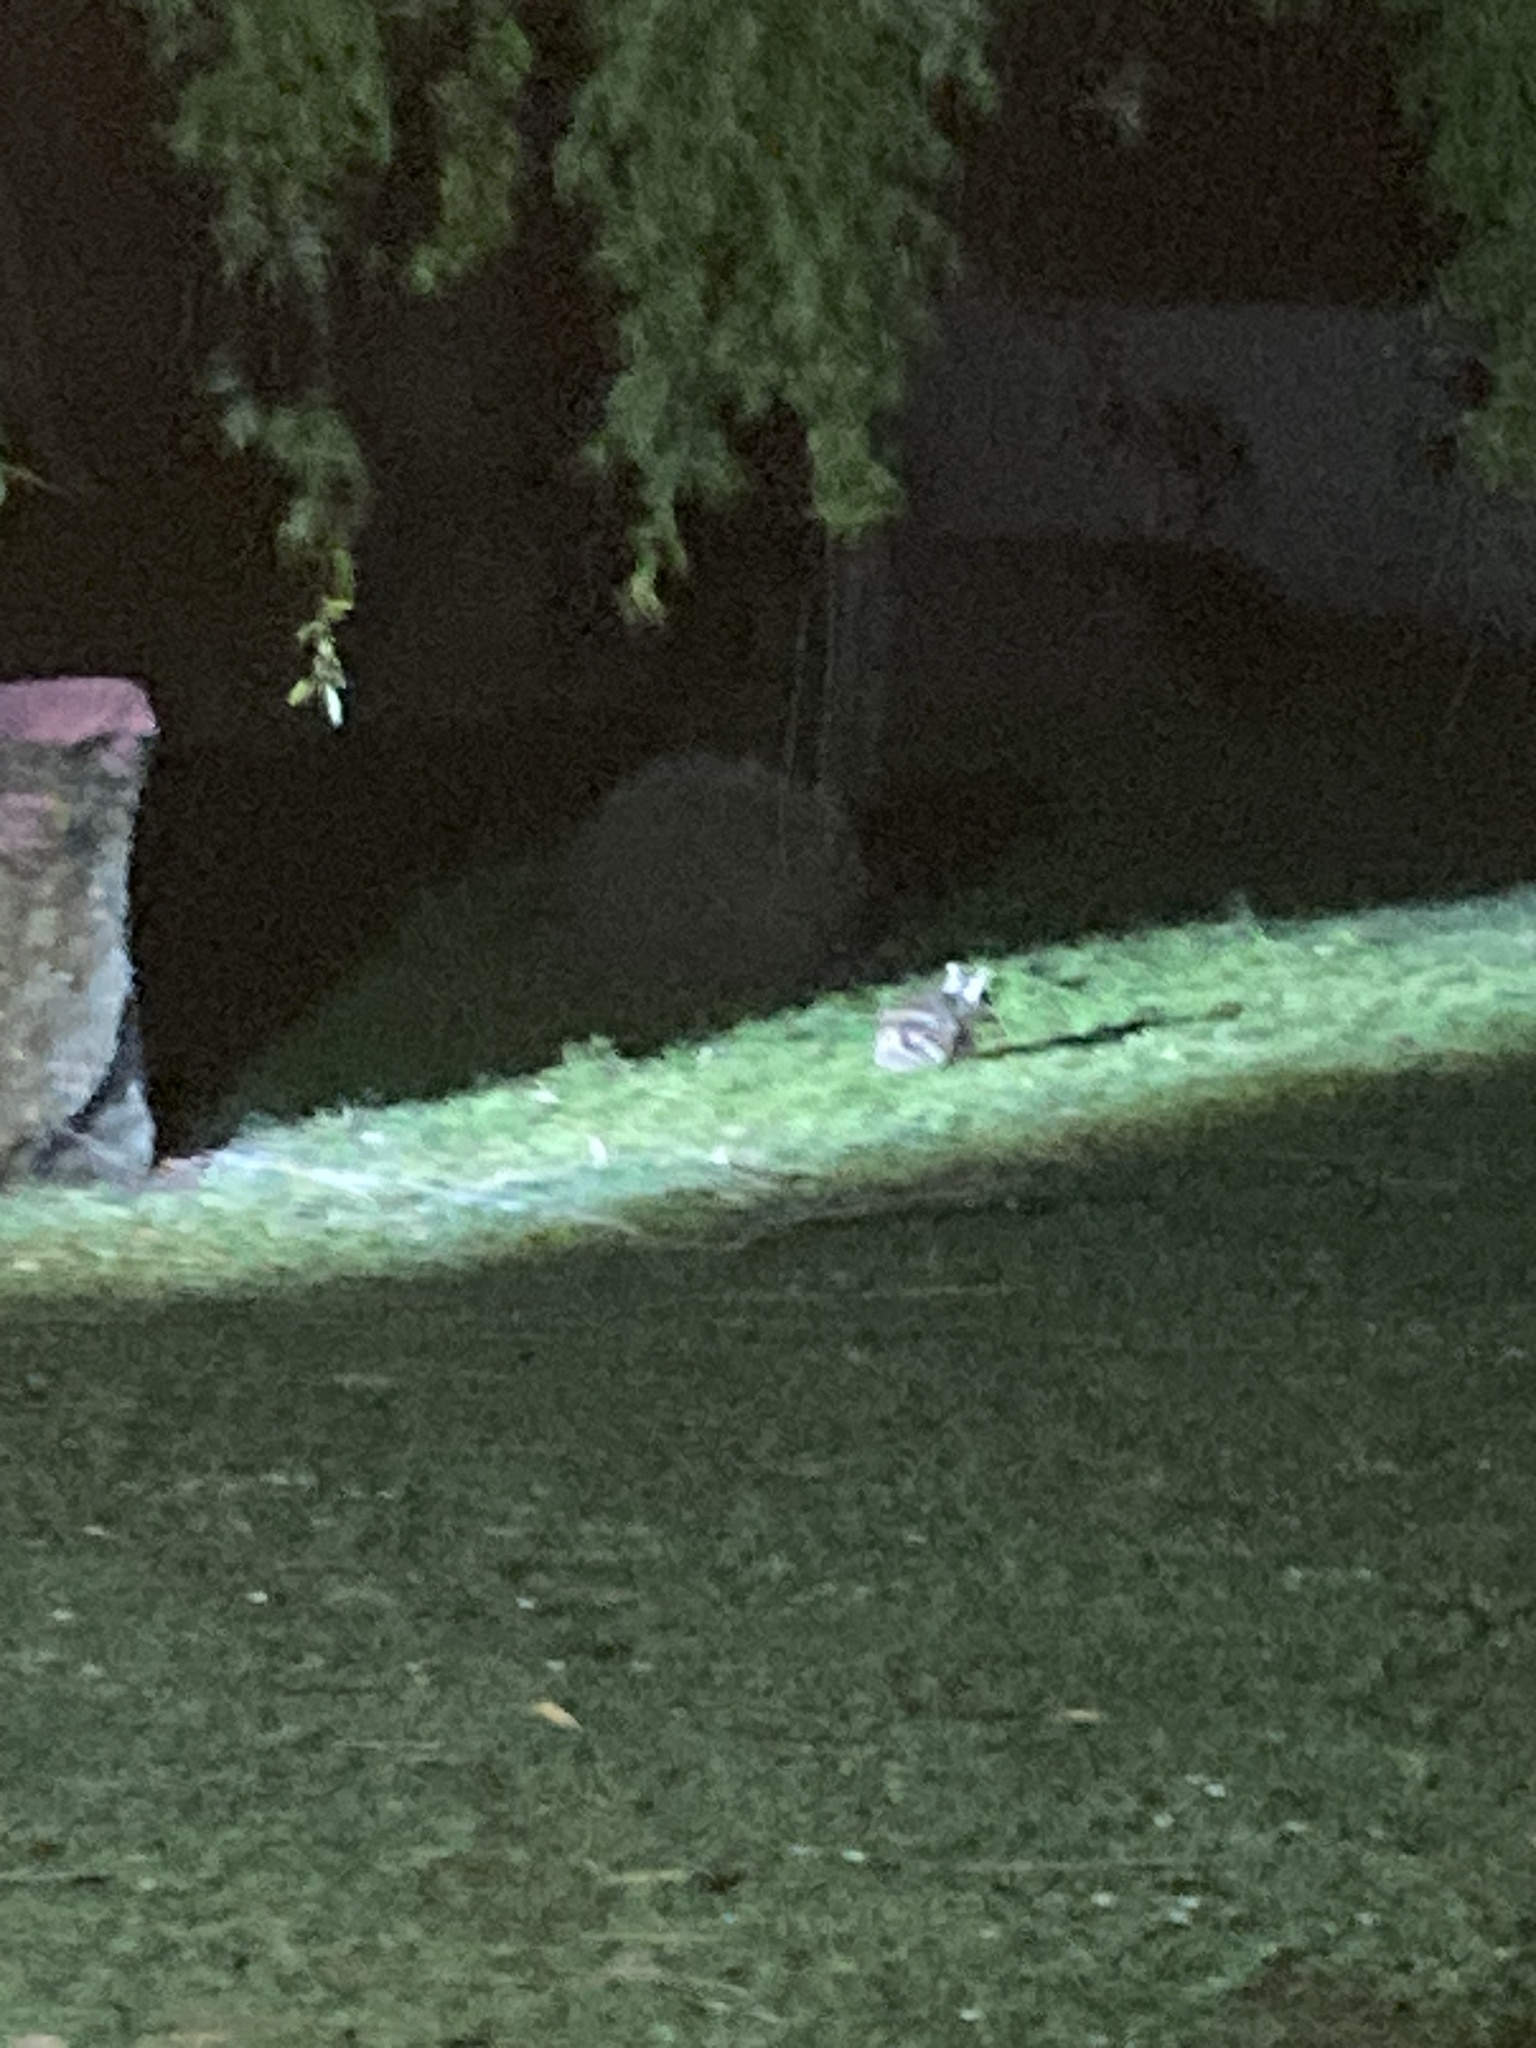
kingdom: Animalia
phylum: Chordata
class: Mammalia
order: Peramelemorphia
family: Peramelidae
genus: Perameles
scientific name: Perameles gunnii
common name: Eastern barred bandicoot
